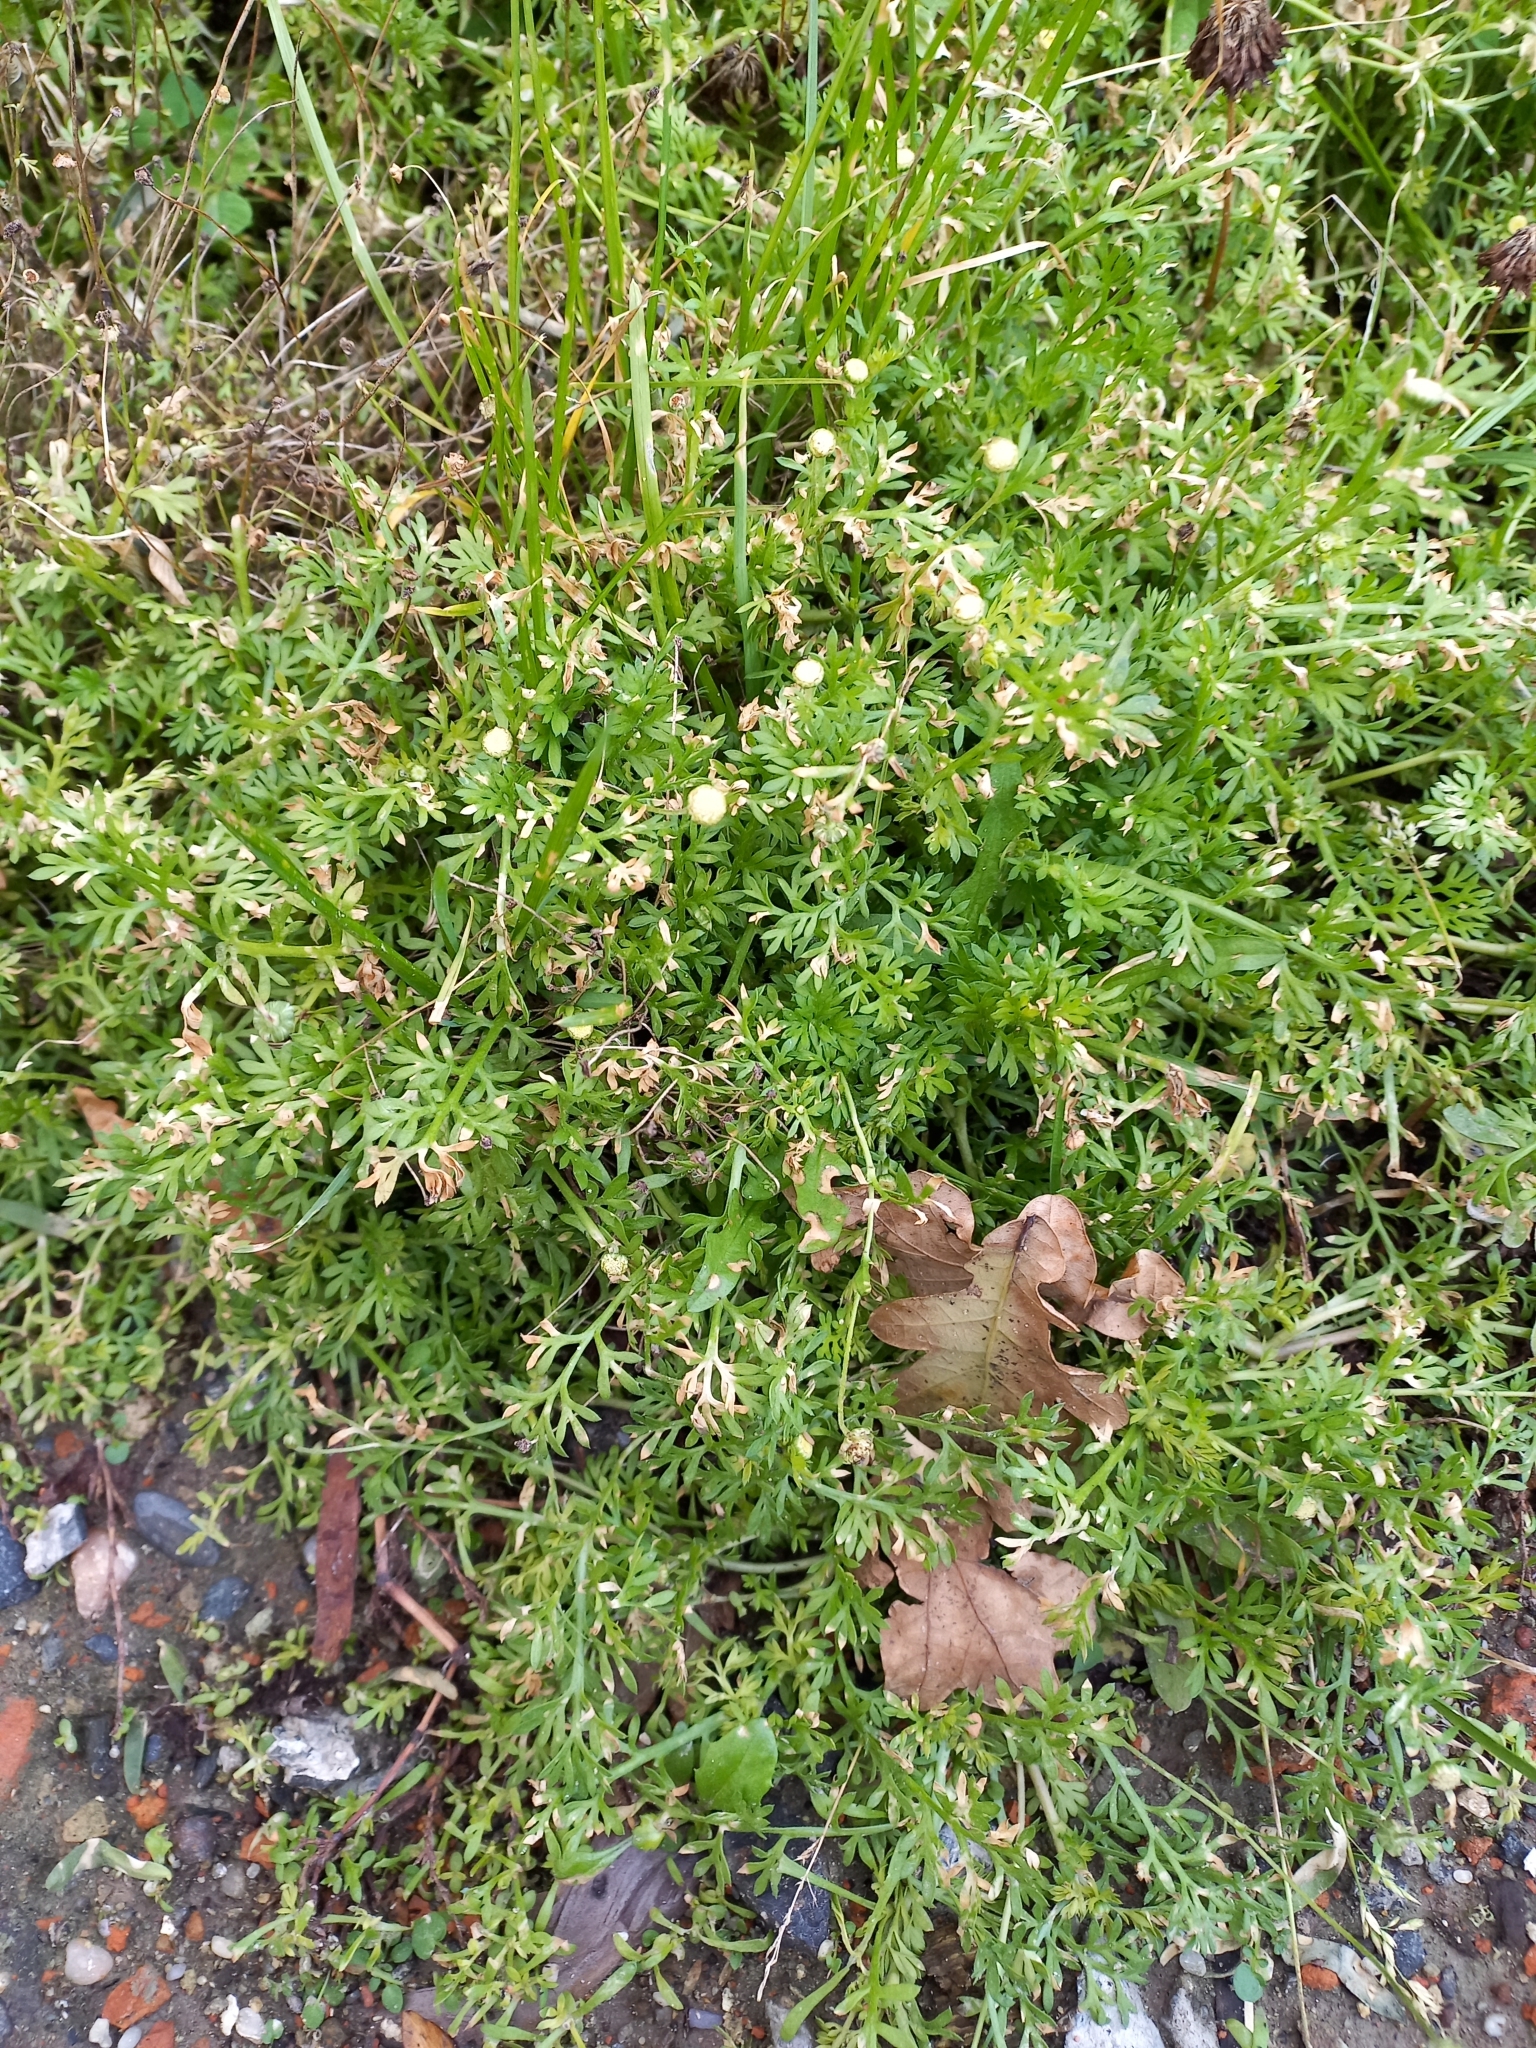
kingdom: Plantae
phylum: Tracheophyta
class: Magnoliopsida
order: Asterales
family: Asteraceae
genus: Cotula
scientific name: Cotula australis
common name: Australian waterbuttons
